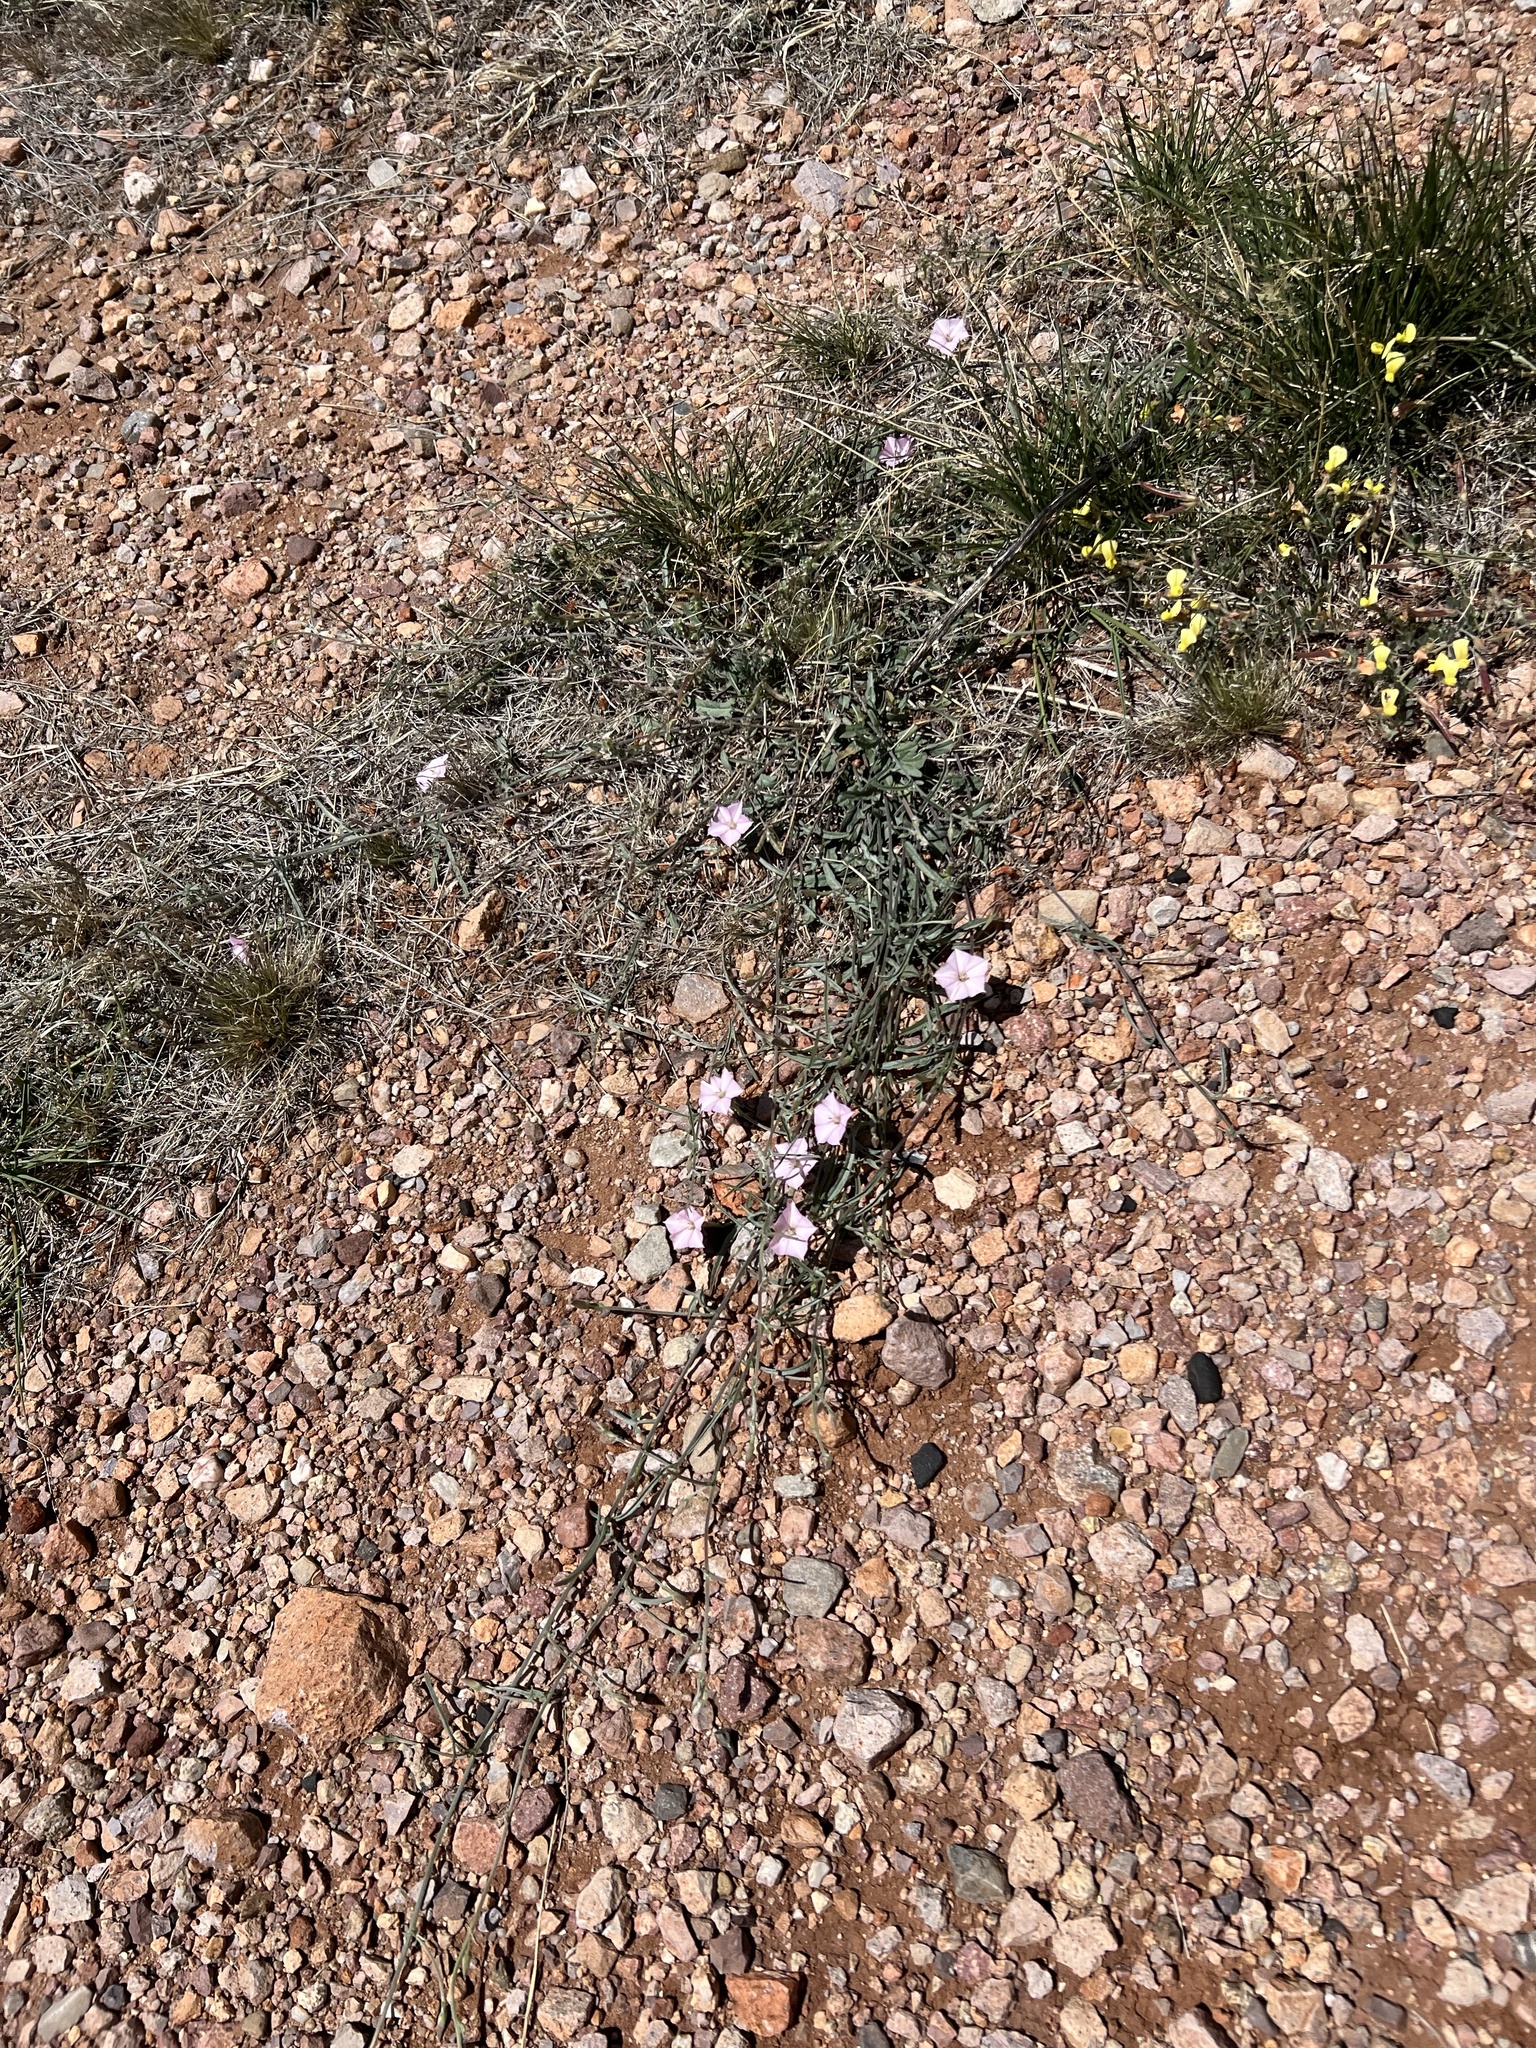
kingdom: Plantae
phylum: Tracheophyta
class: Magnoliopsida
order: Solanales
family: Convolvulaceae
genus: Convolvulus
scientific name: Convolvulus equitans
